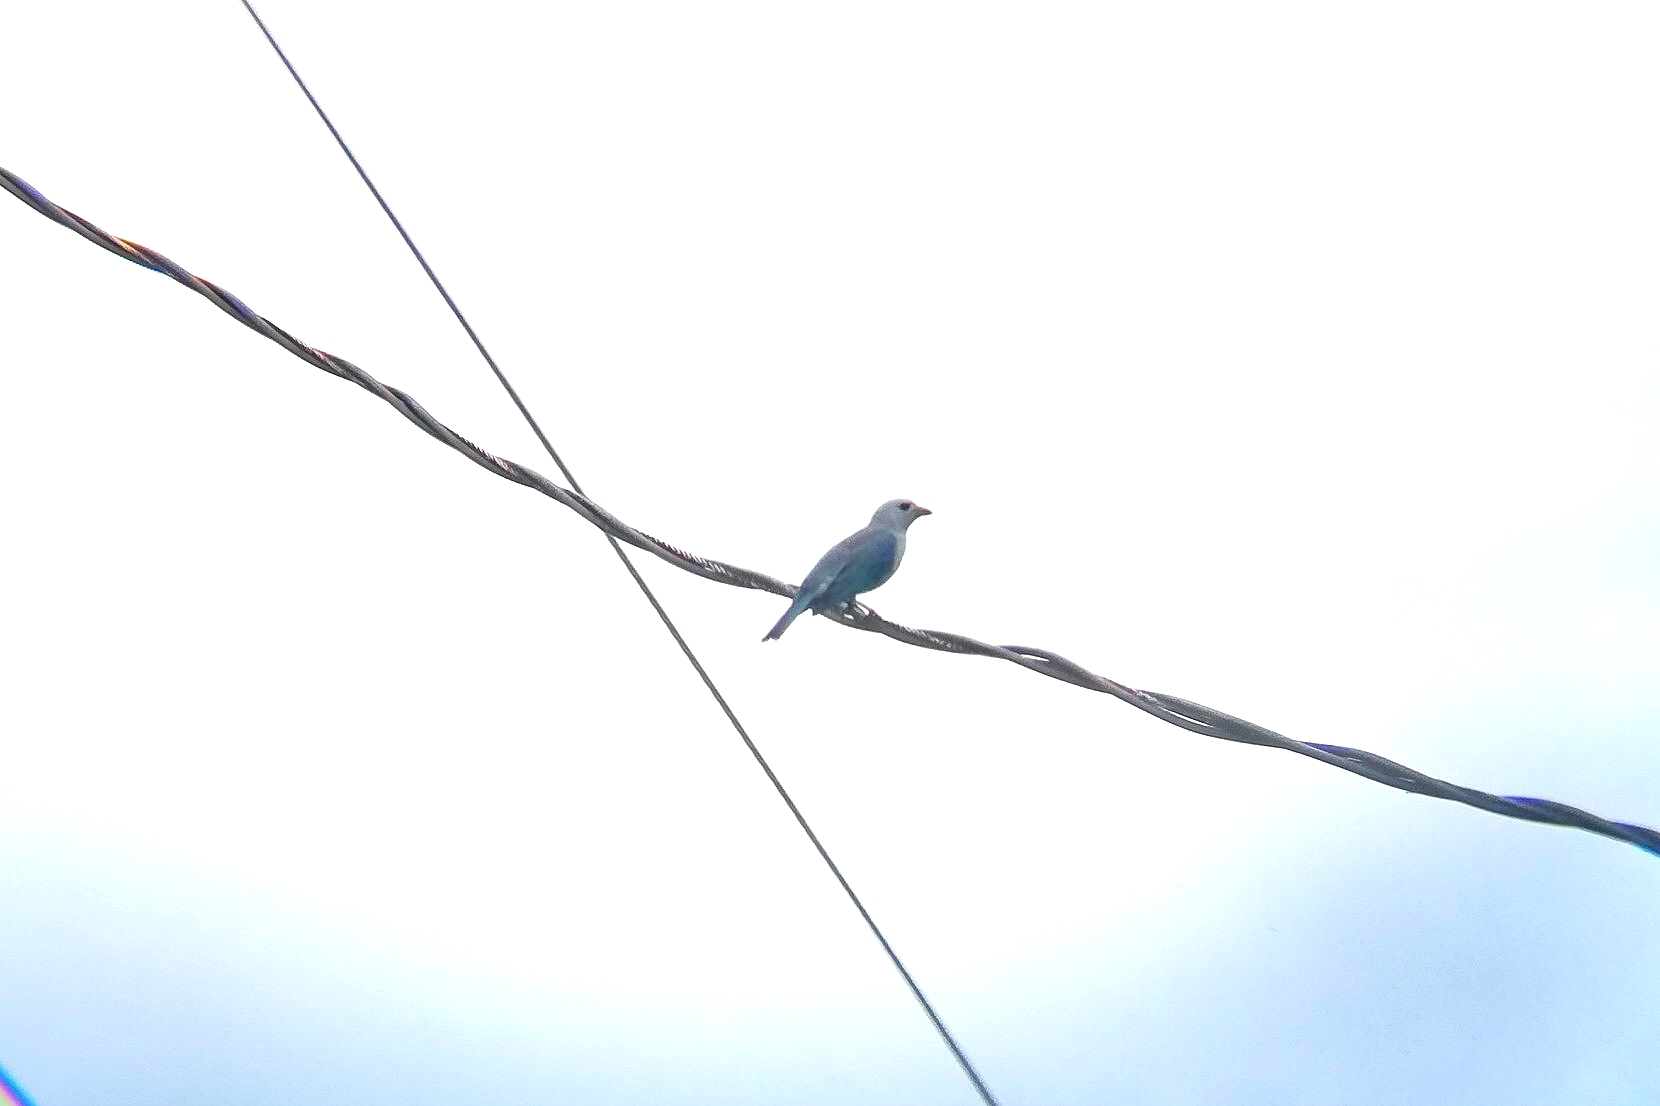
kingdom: Animalia
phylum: Chordata
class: Aves
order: Passeriformes
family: Thraupidae
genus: Thraupis
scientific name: Thraupis episcopus
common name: Blue-grey tanager
